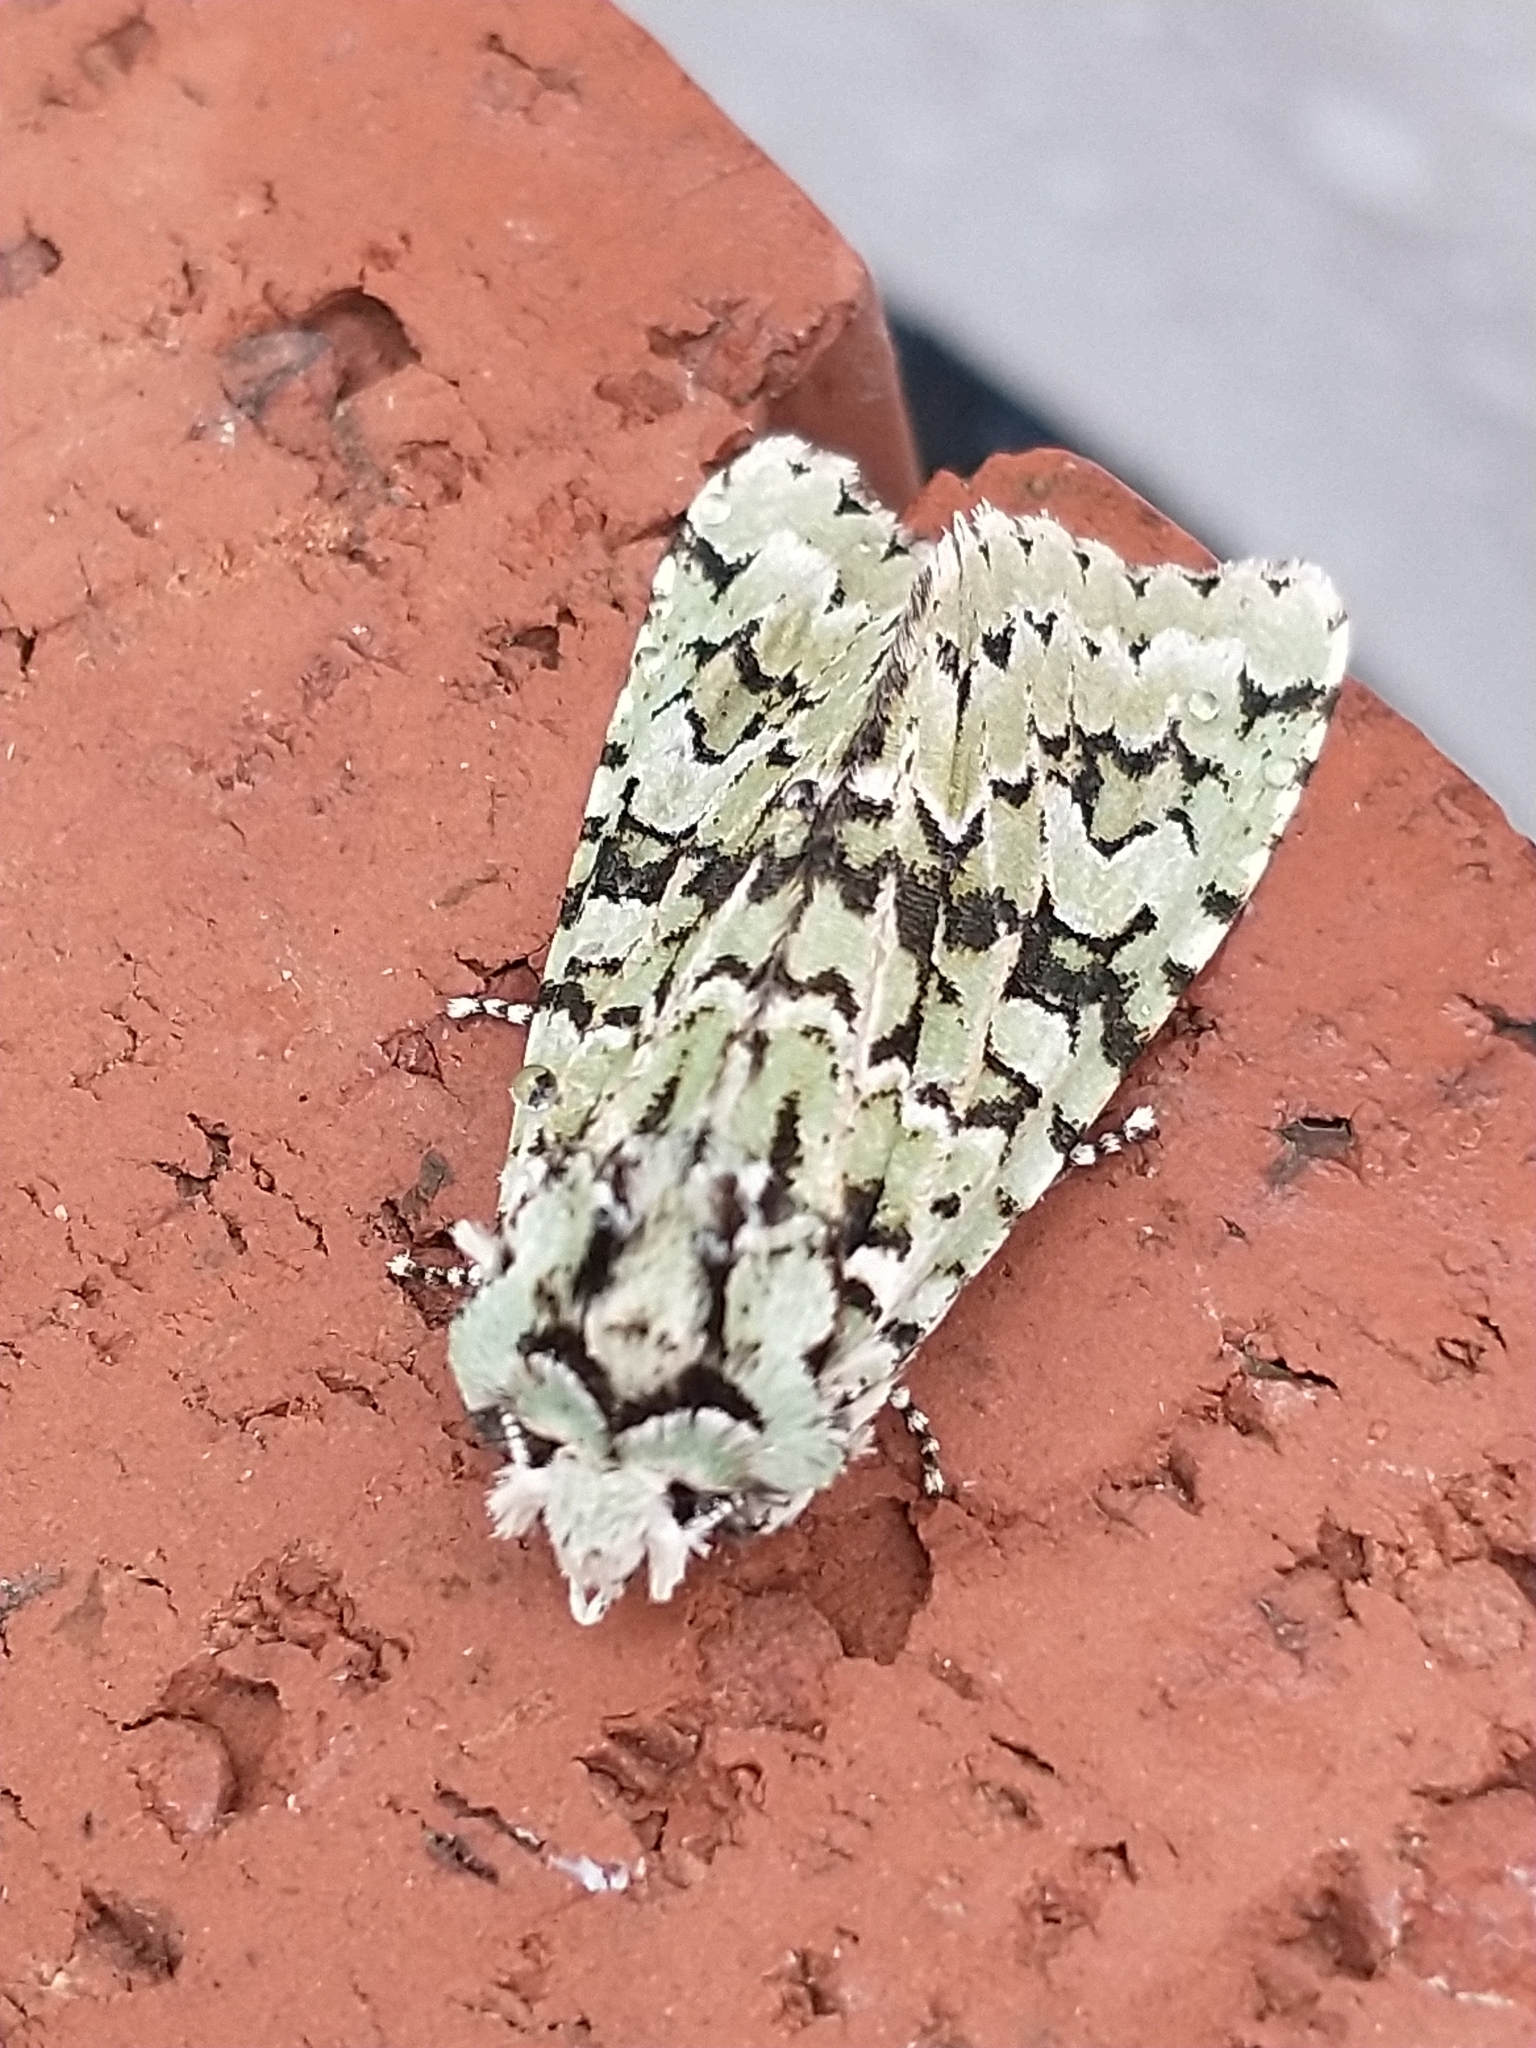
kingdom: Animalia
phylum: Arthropoda
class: Insecta
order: Lepidoptera
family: Noctuidae
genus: Griposia
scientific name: Griposia aprilina
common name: Merveille du jour
